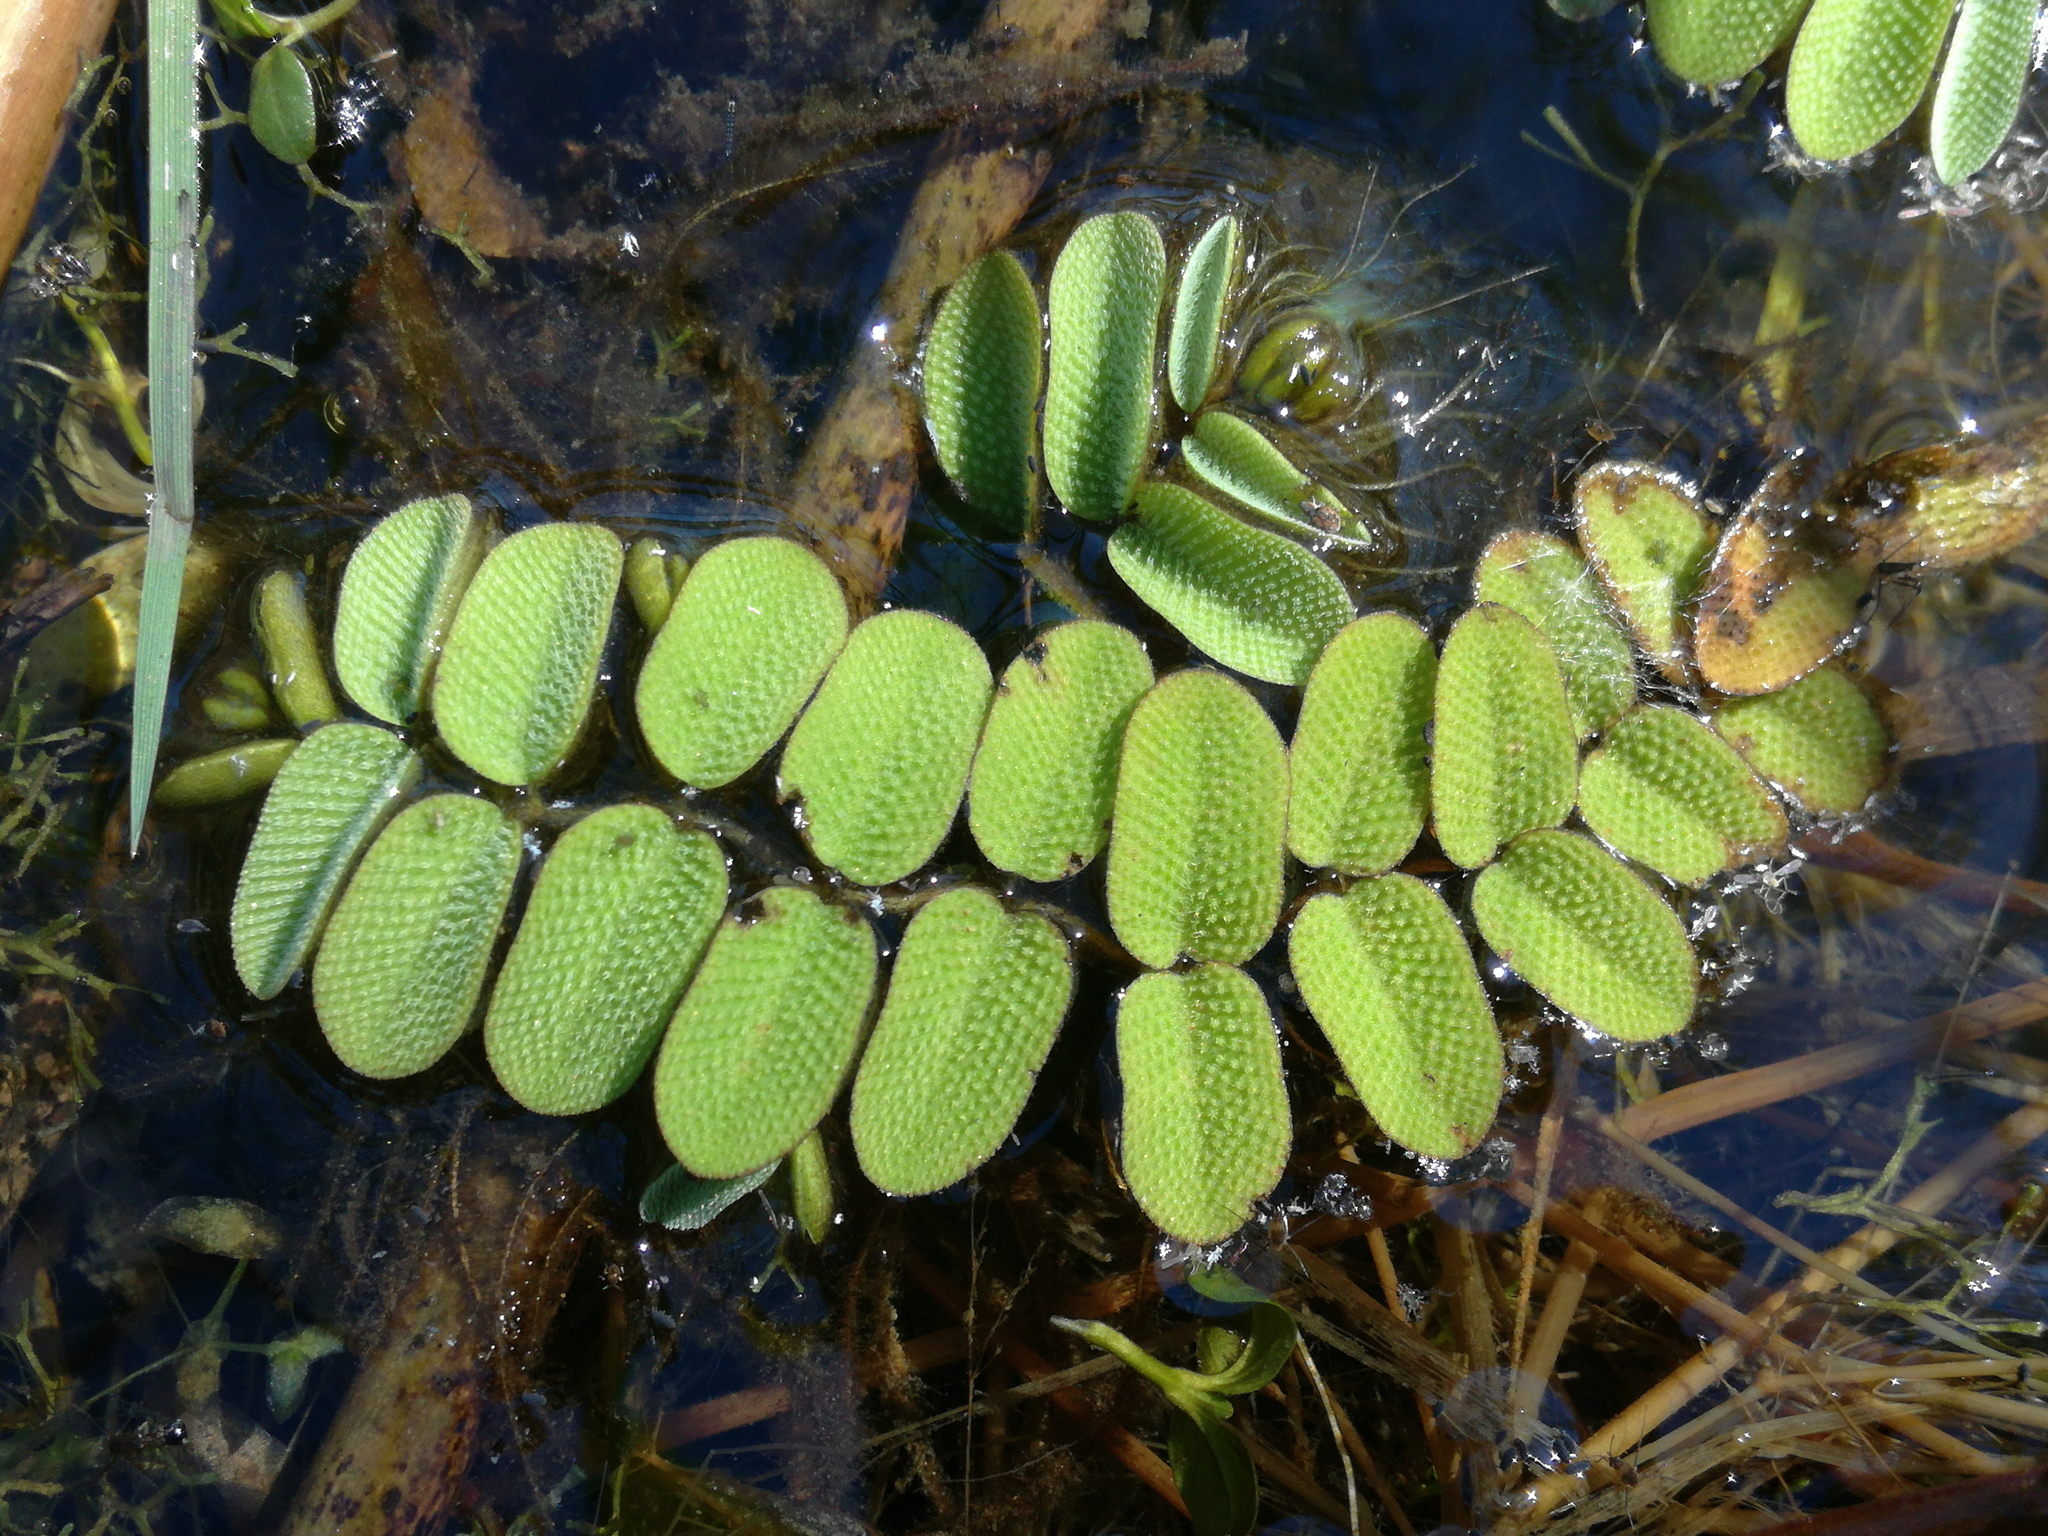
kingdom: Plantae
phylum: Tracheophyta
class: Polypodiopsida
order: Salviniales
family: Salviniaceae
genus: Salvinia
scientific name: Salvinia natans
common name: Floating fern
